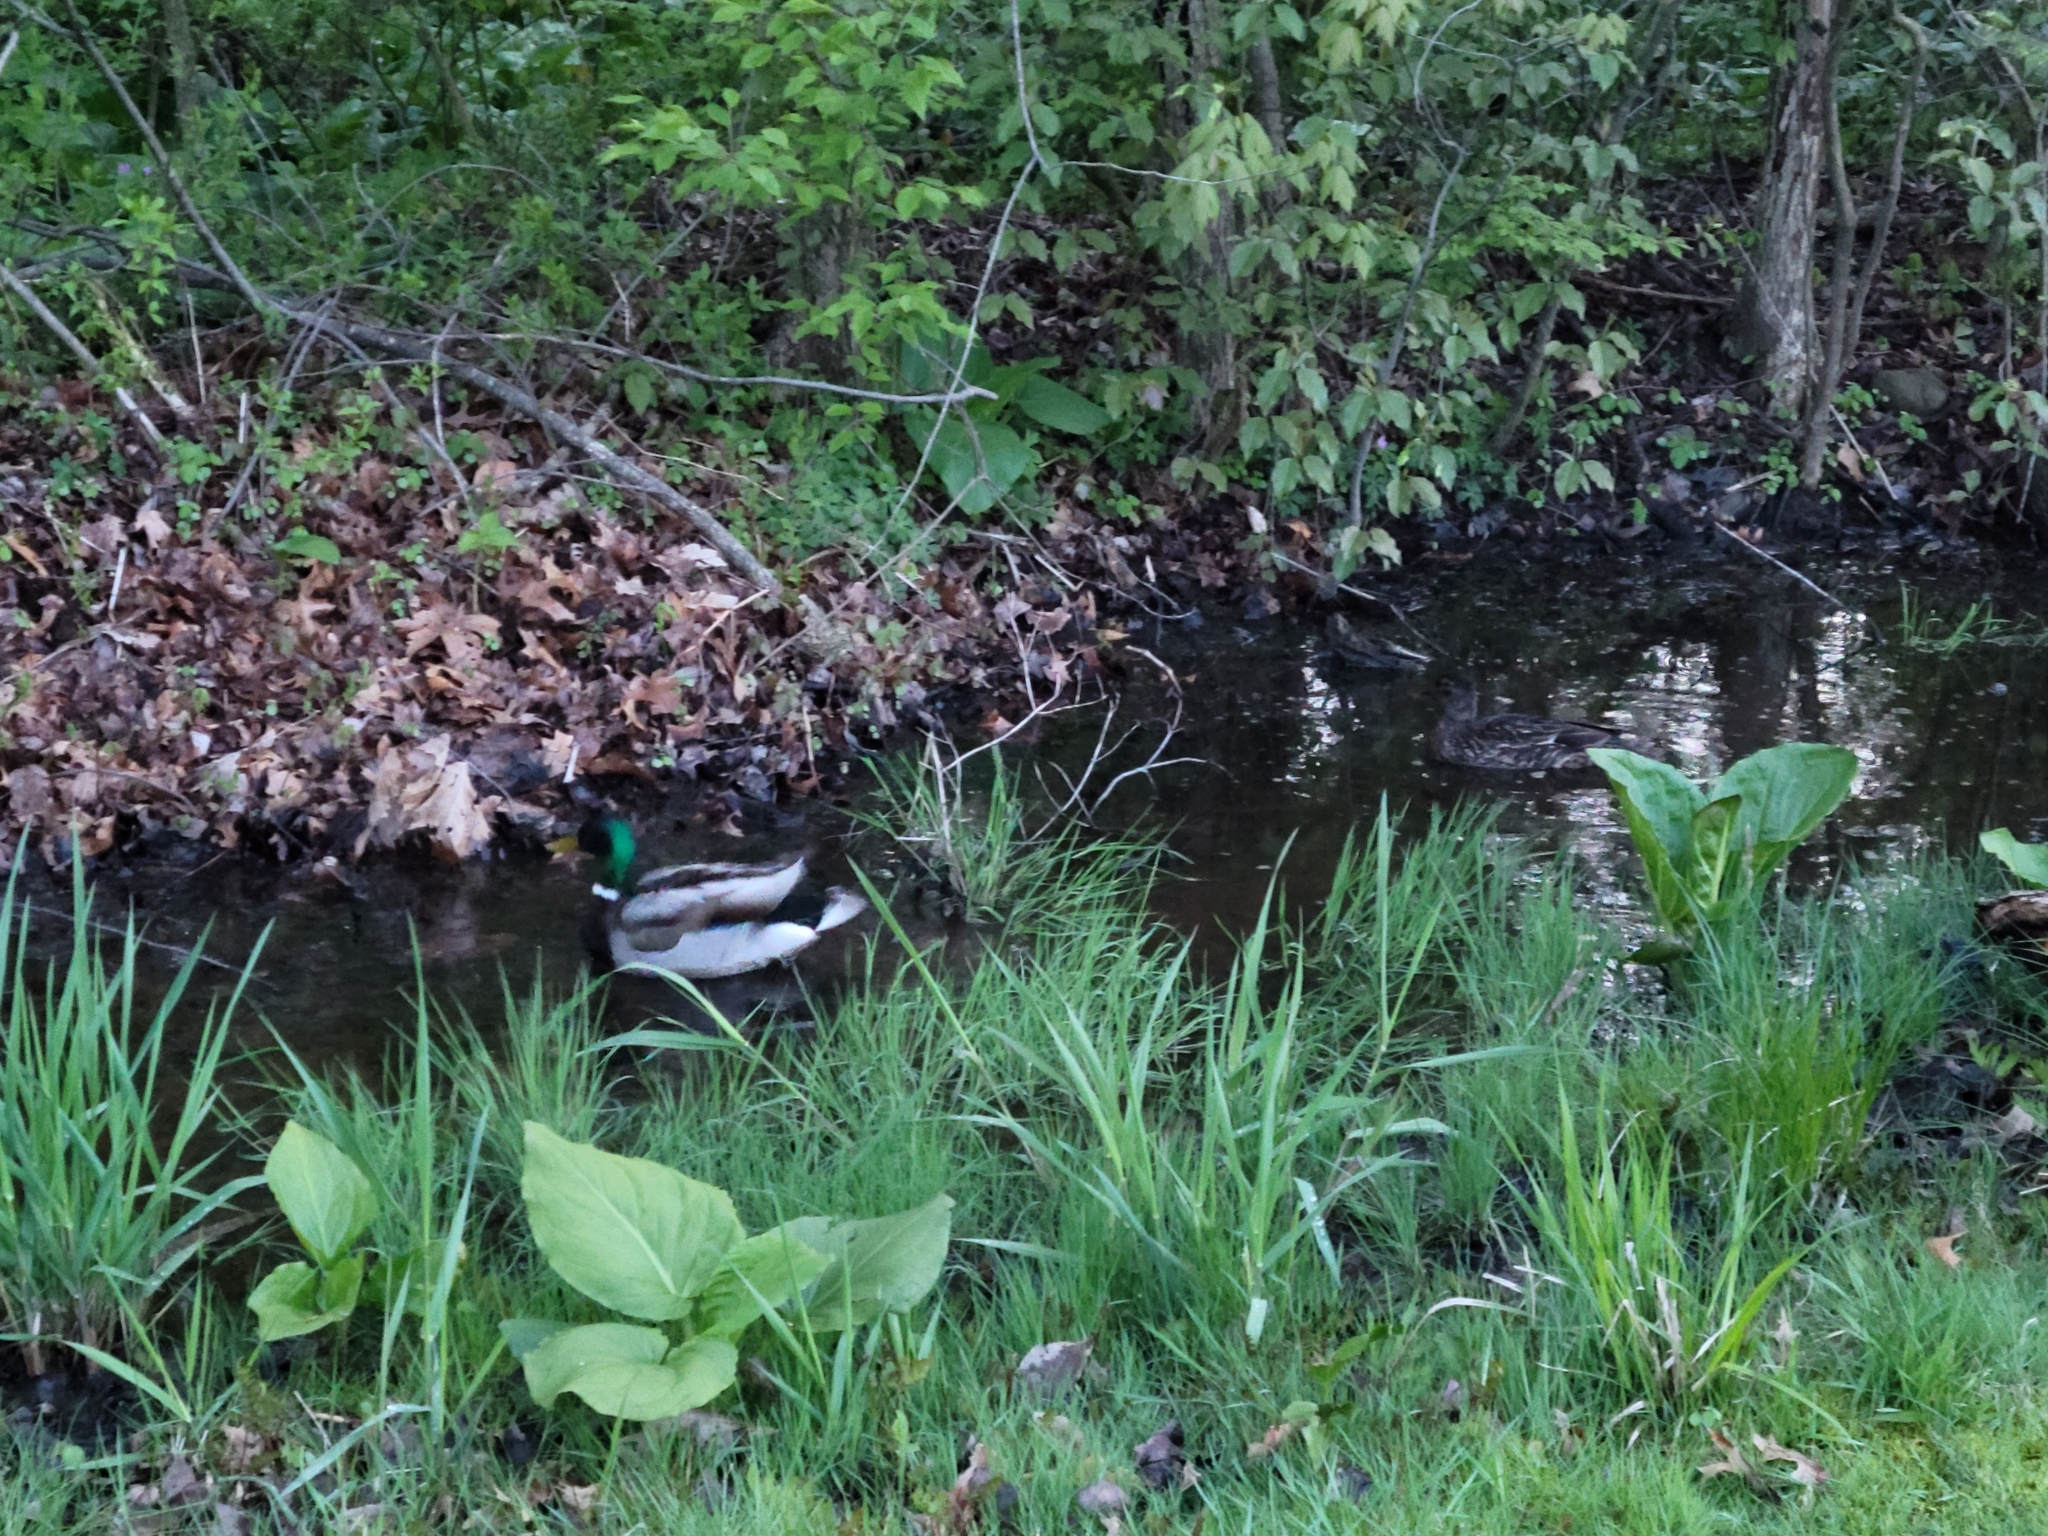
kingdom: Animalia
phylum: Chordata
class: Aves
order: Anseriformes
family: Anatidae
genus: Anas
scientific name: Anas platyrhynchos
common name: Mallard
